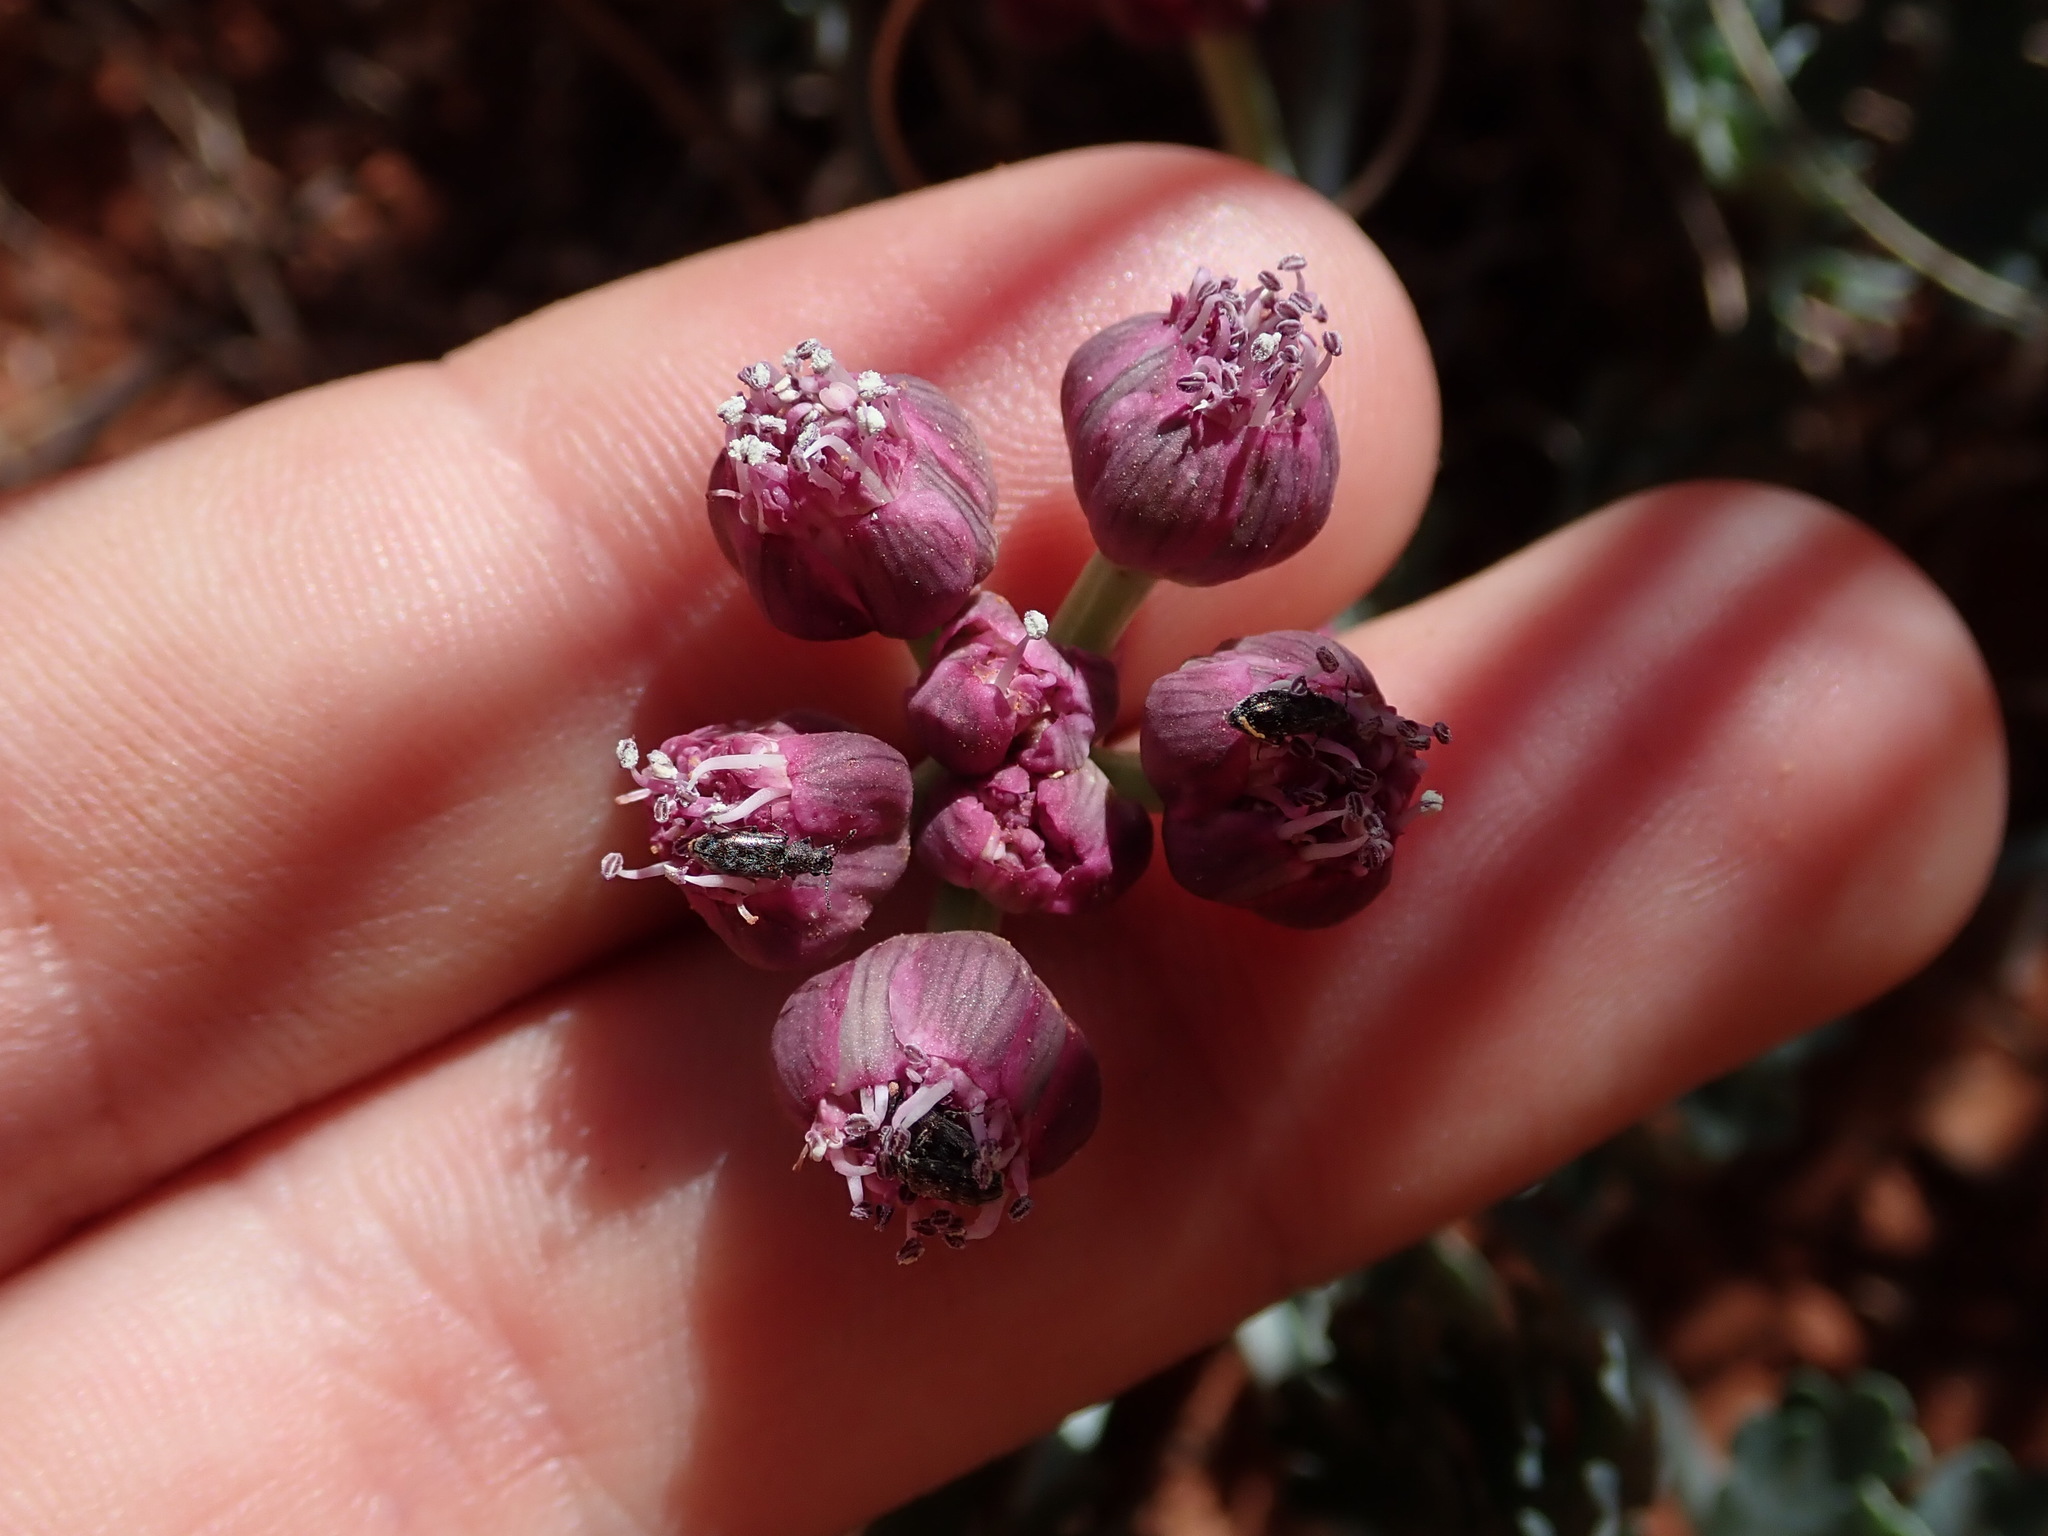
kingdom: Plantae
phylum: Tracheophyta
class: Magnoliopsida
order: Apiales
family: Apiaceae
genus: Vesper
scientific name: Vesper multinervatus
